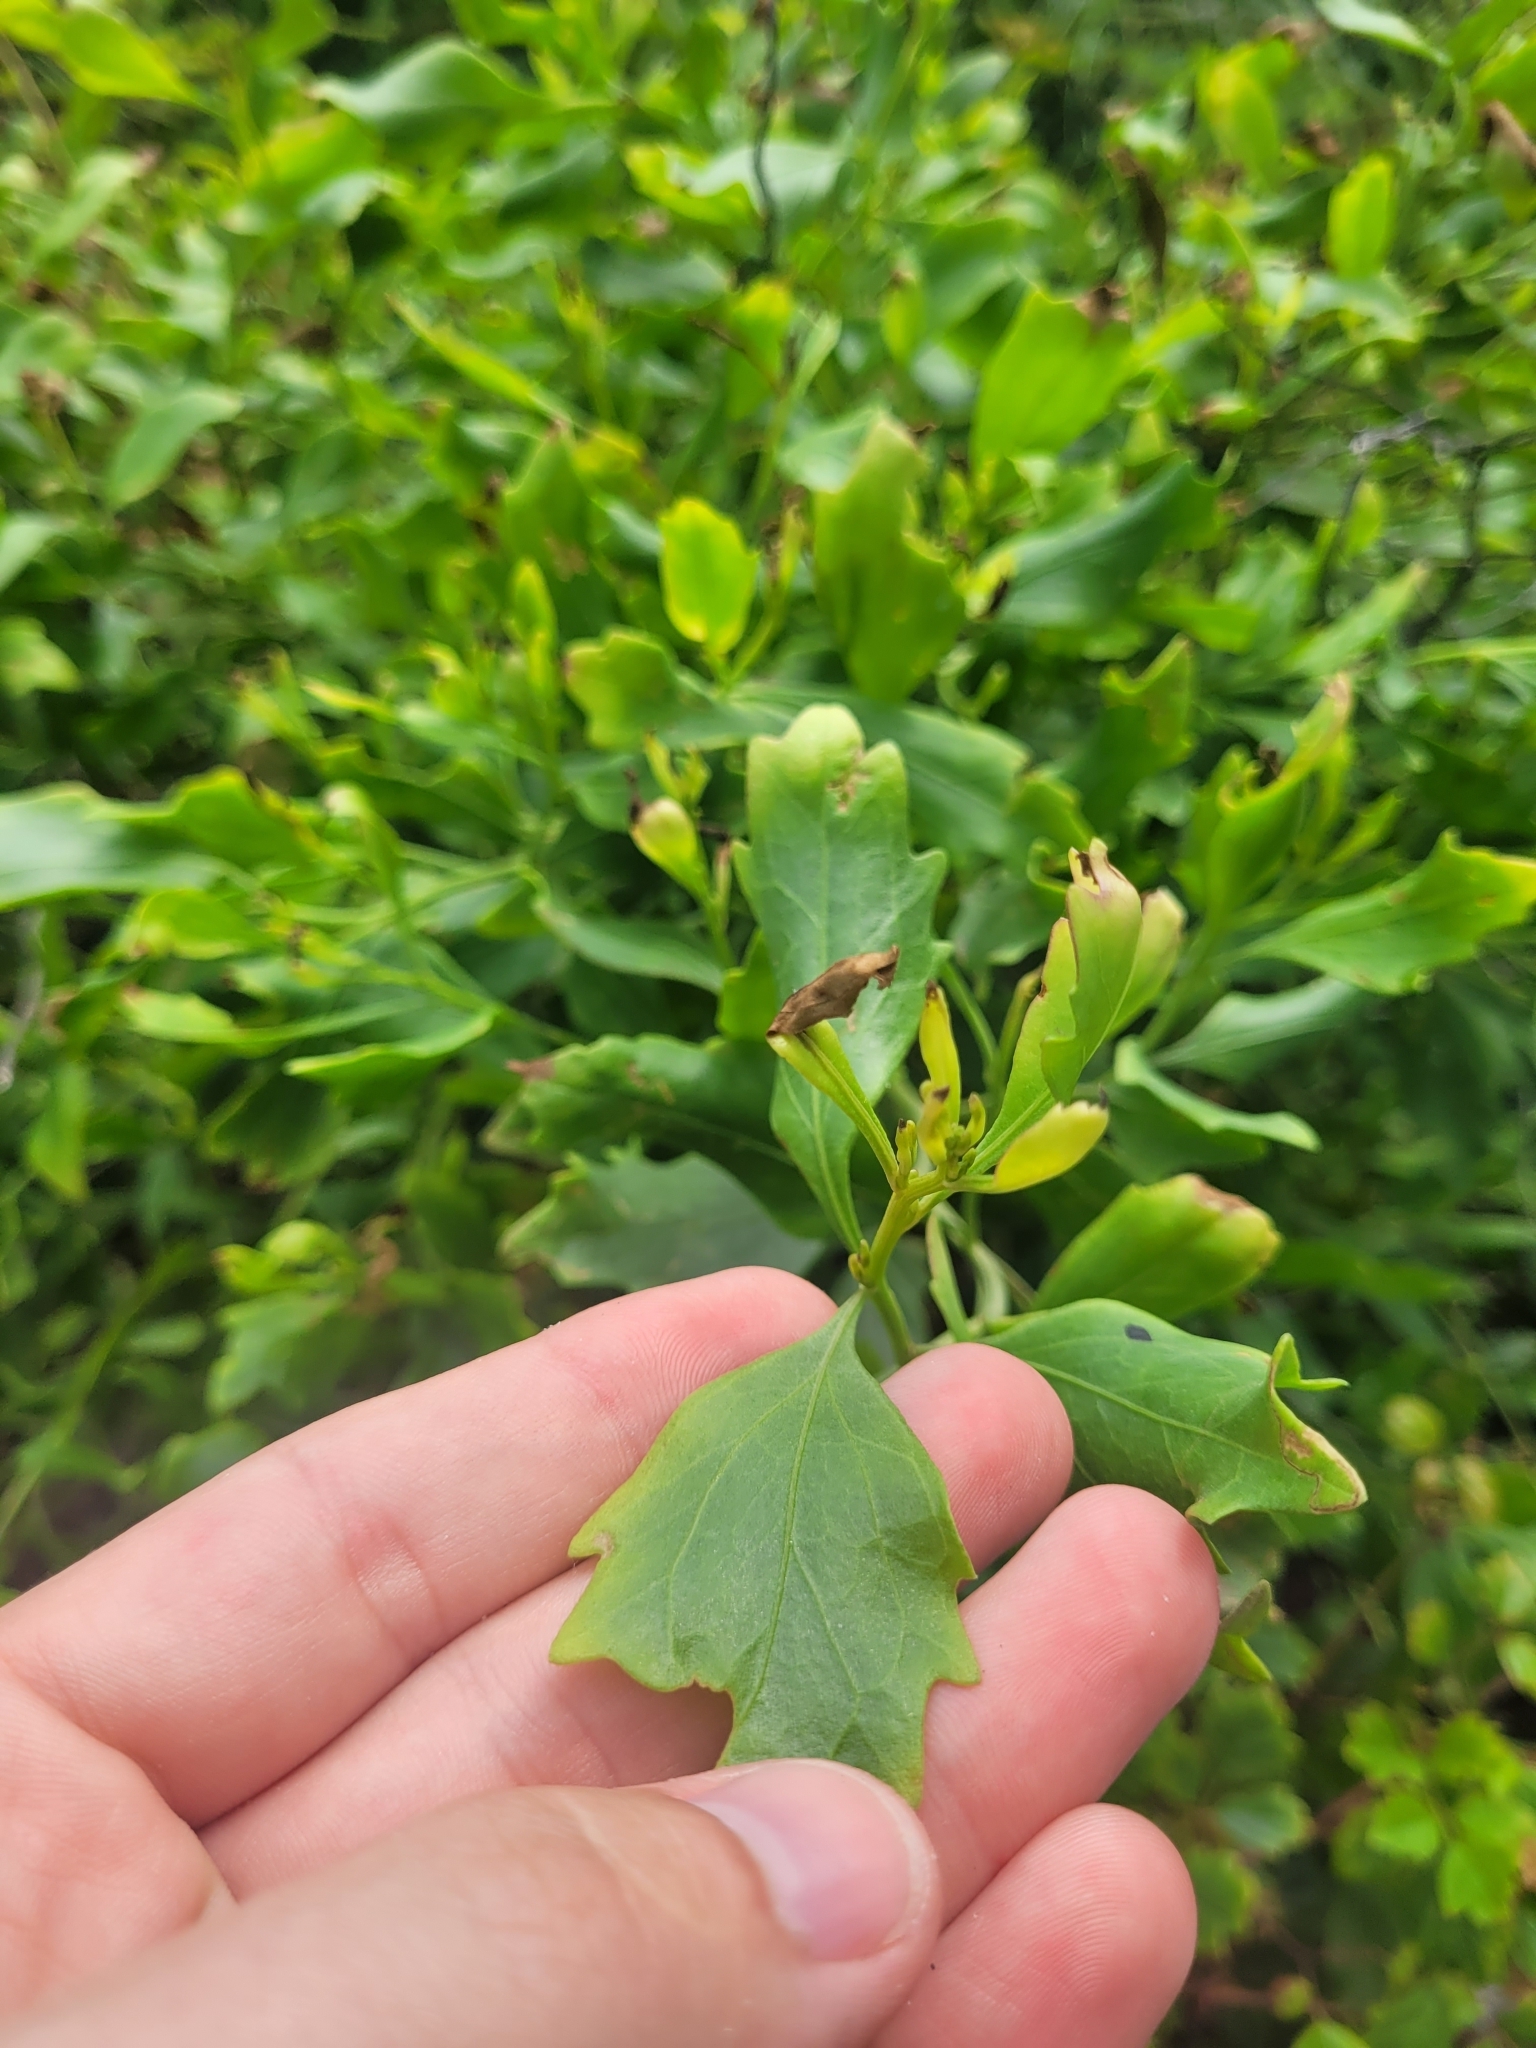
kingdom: Plantae
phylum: Tracheophyta
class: Magnoliopsida
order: Asterales
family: Asteraceae
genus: Baccharis
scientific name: Baccharis halimifolia
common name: Eastern baccharis
